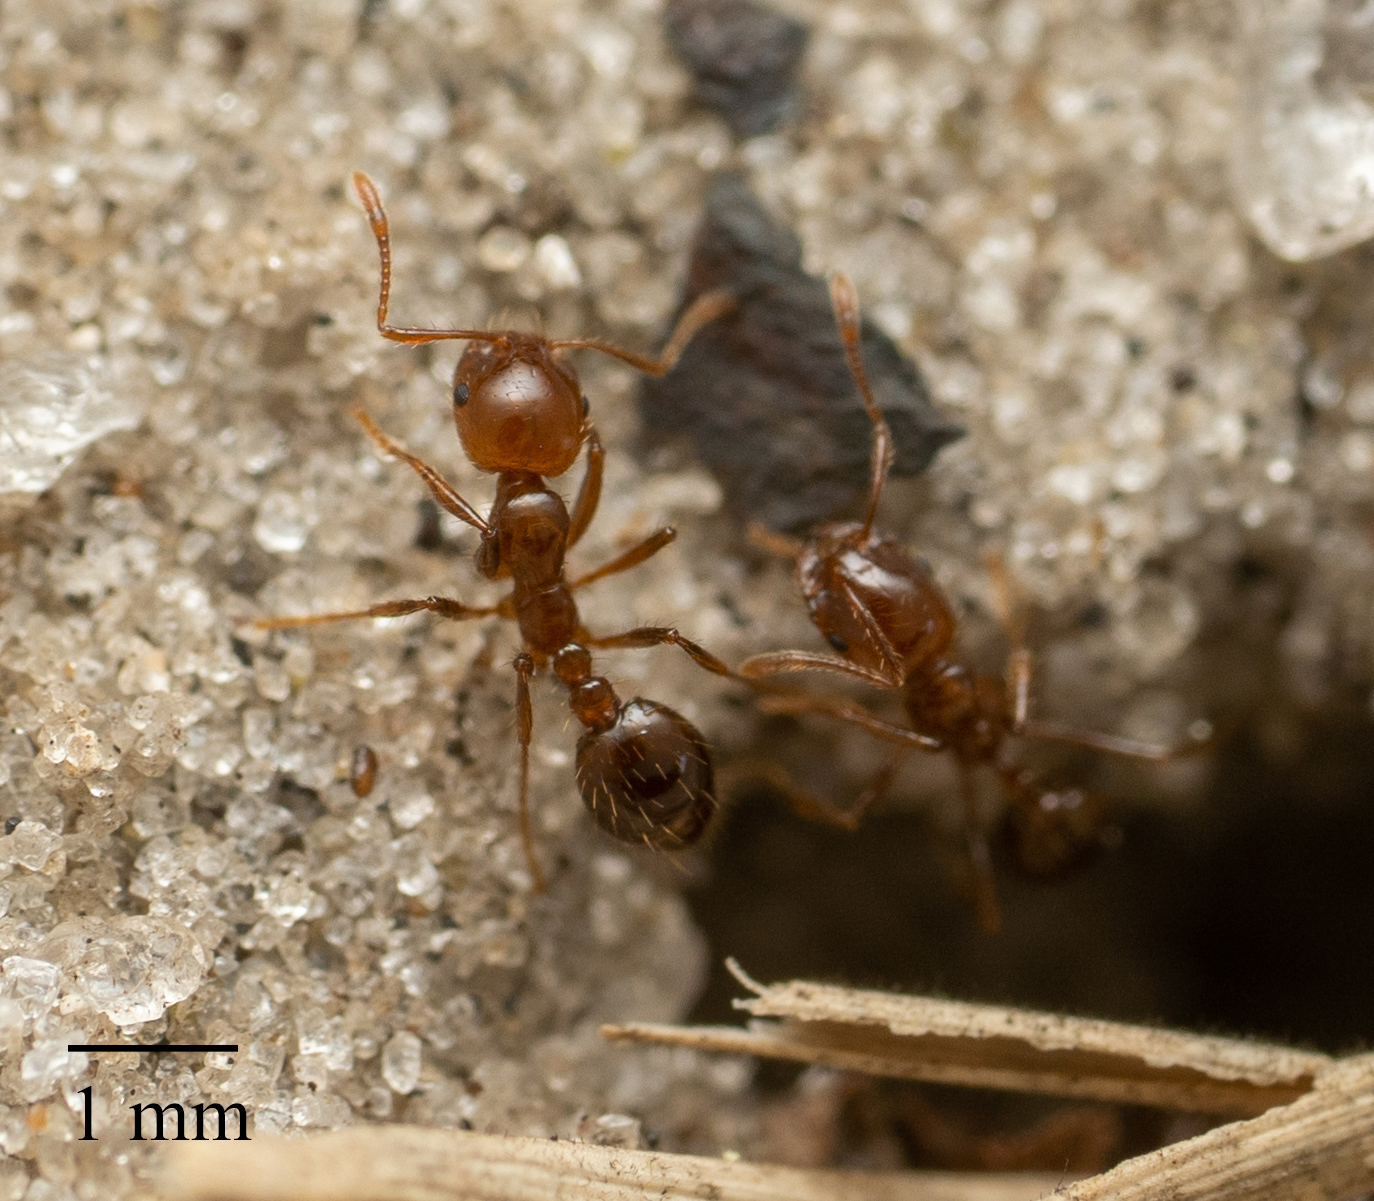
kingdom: Animalia
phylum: Arthropoda
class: Insecta
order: Hymenoptera
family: Formicidae
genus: Solenopsis
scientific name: Solenopsis invicta
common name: Red imported fire ant
